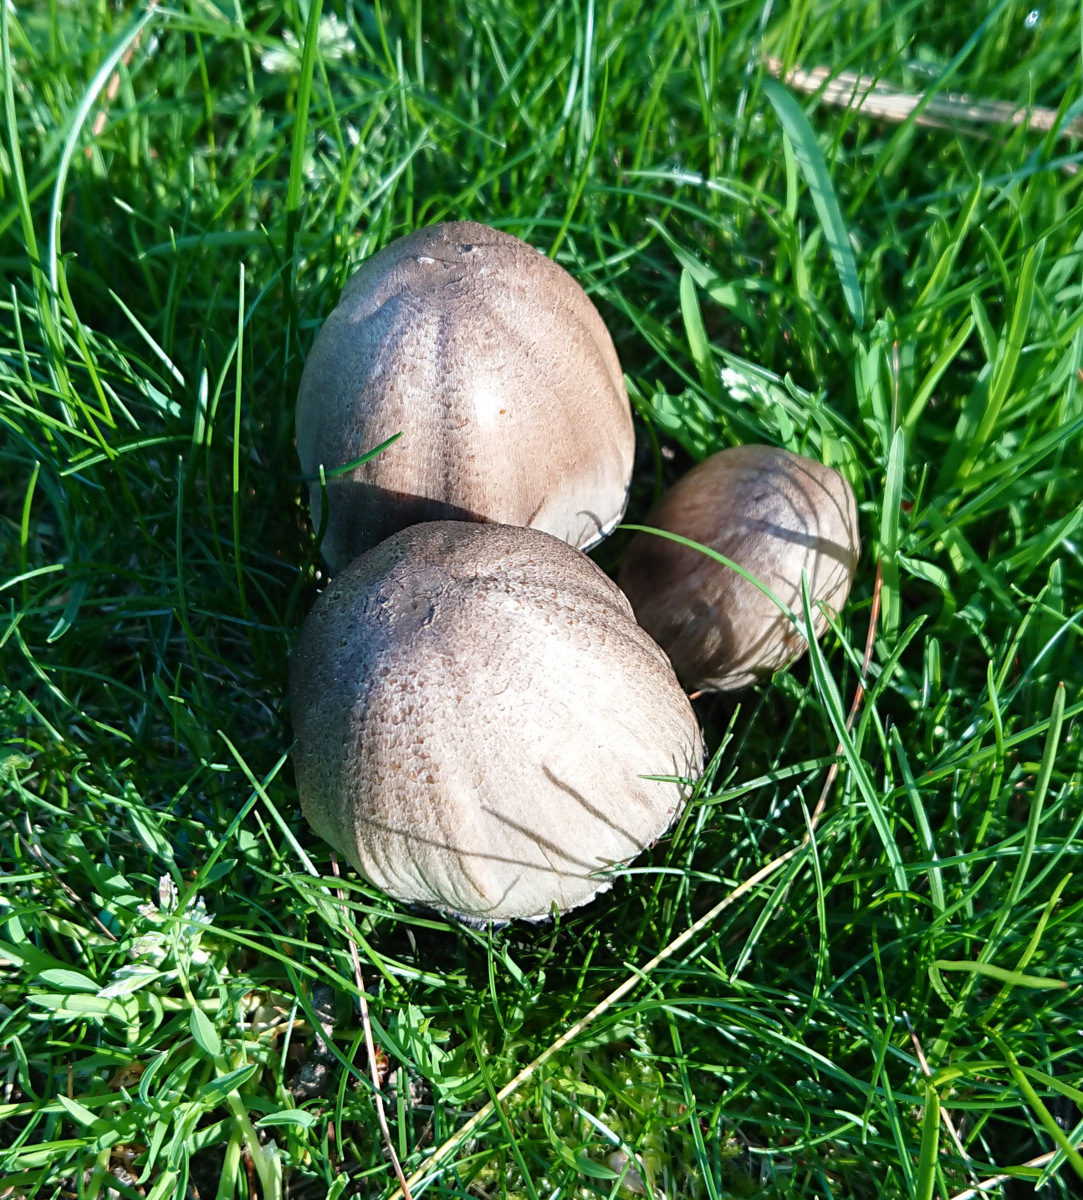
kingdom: Fungi
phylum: Basidiomycota
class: Agaricomycetes
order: Agaricales
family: Psathyrellaceae
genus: Coprinopsis
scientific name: Coprinopsis atramentaria
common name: Common ink-cap
